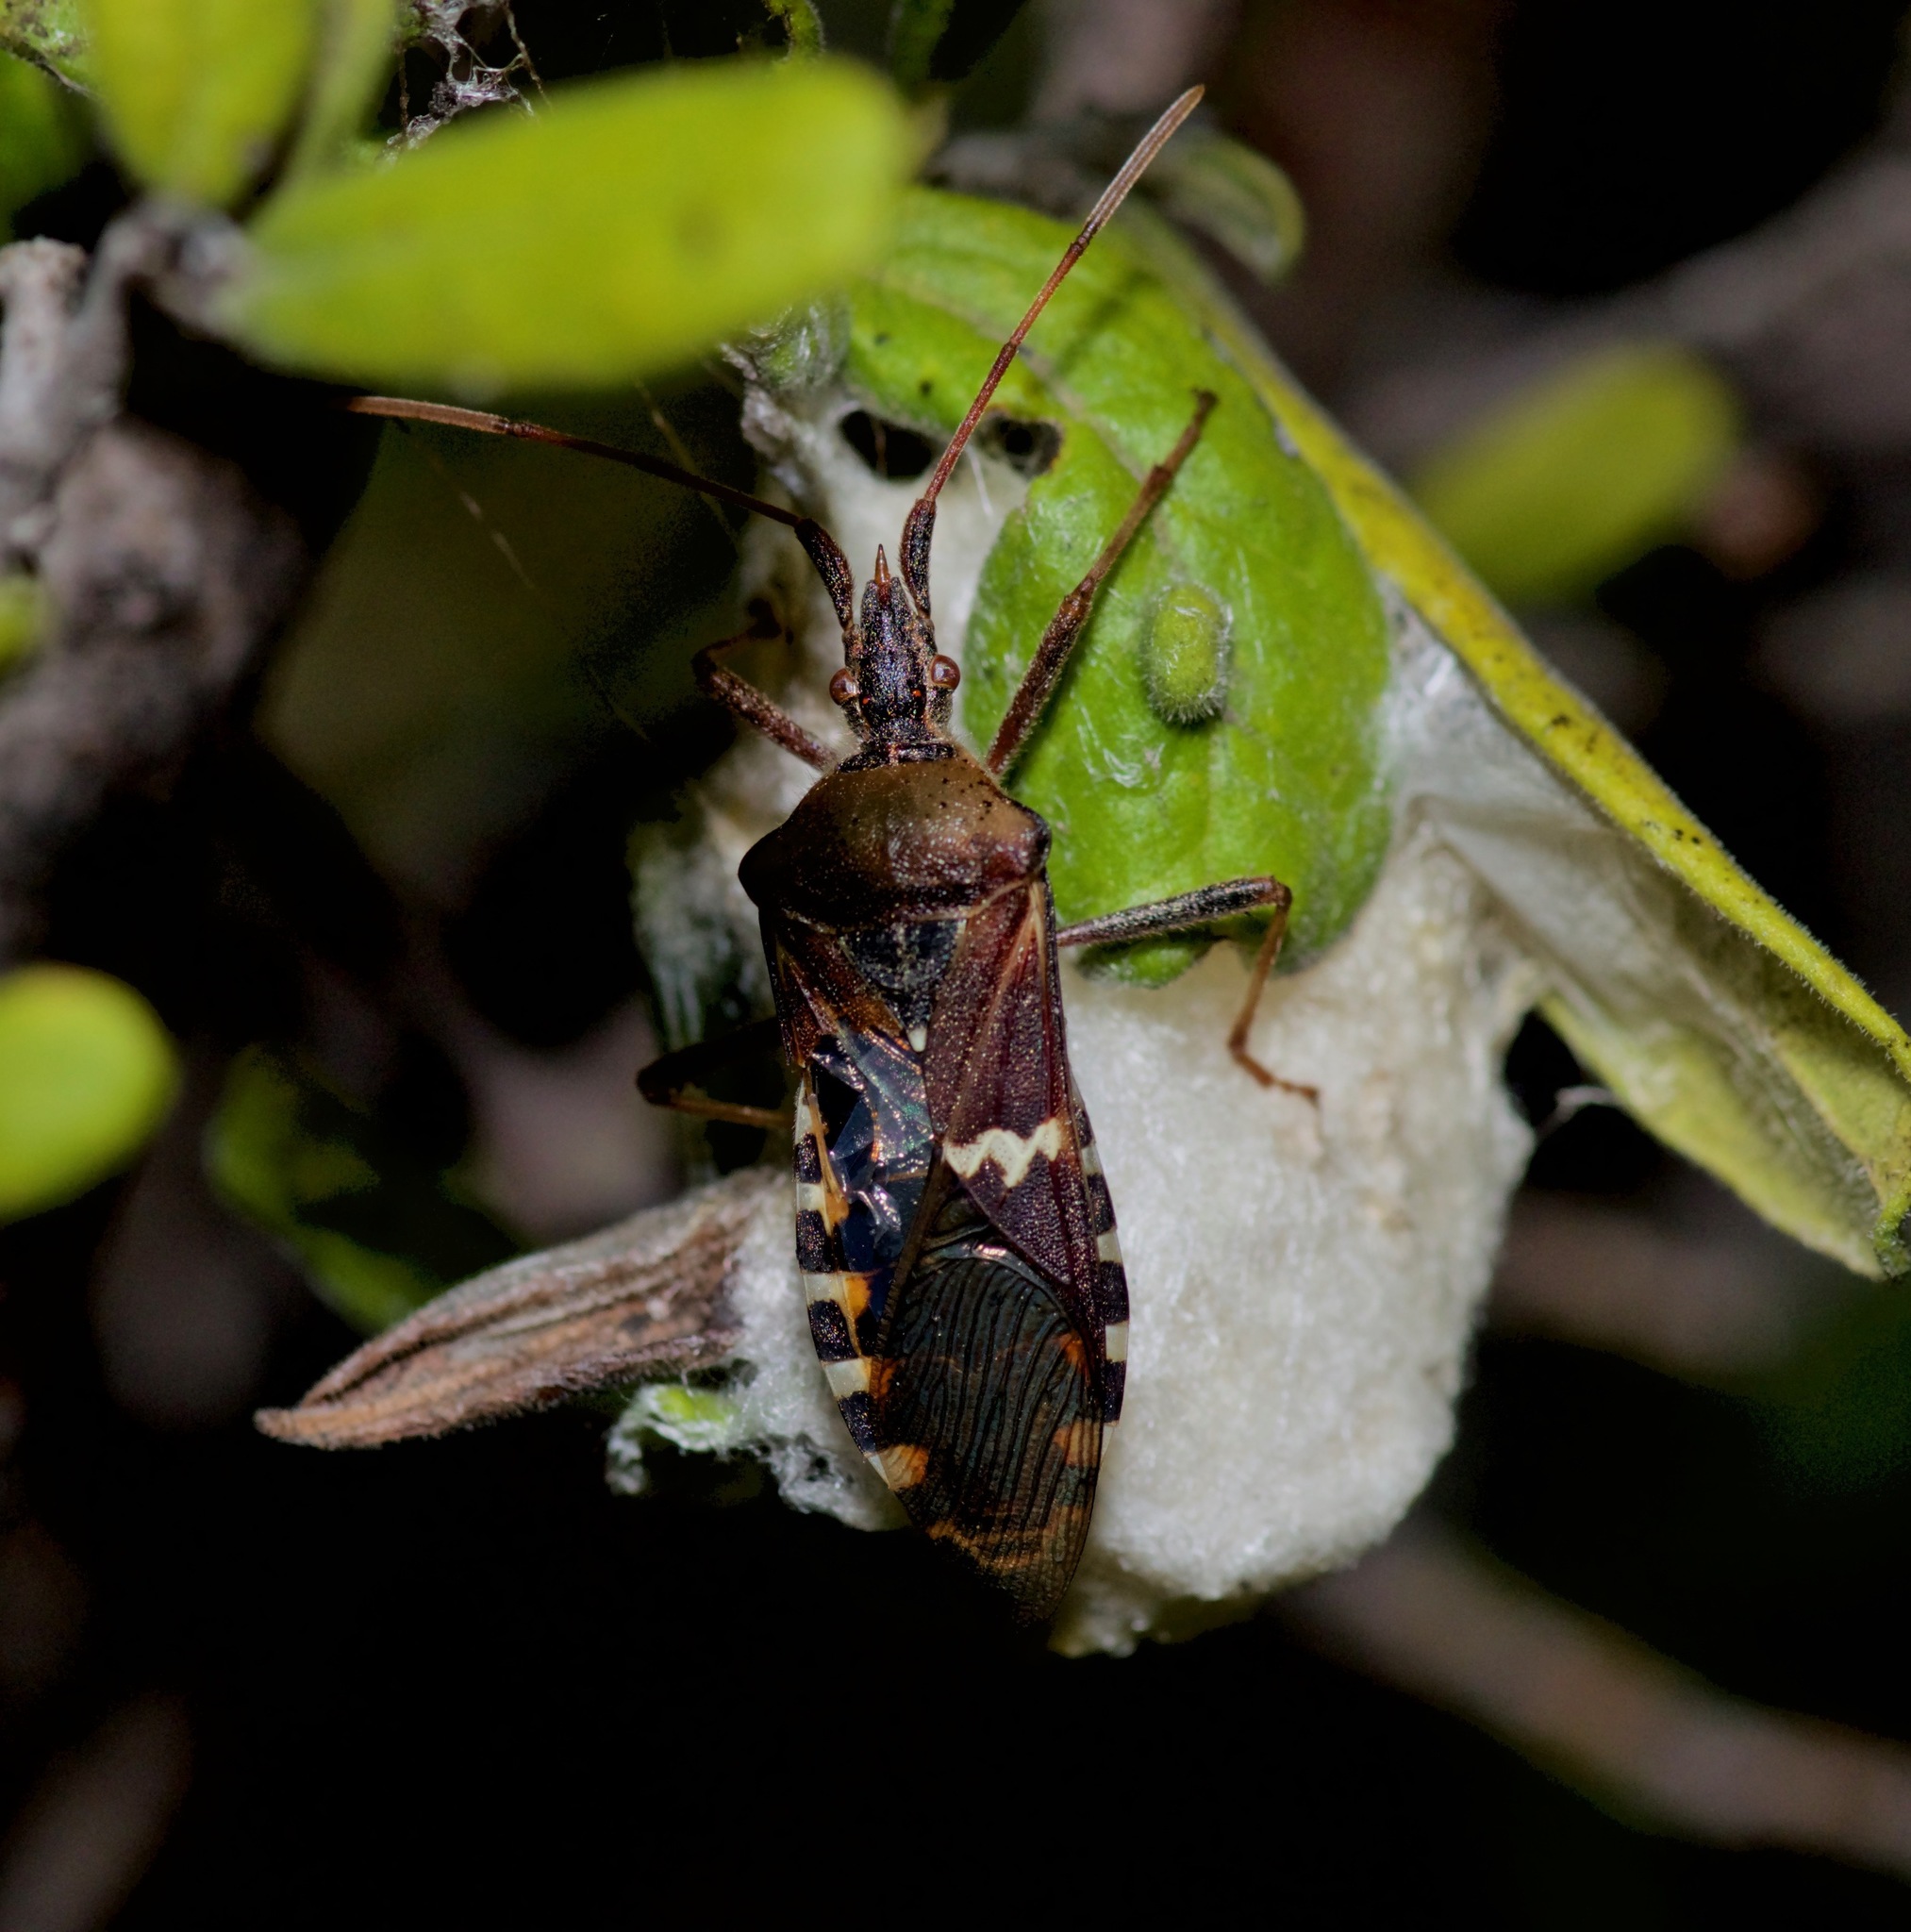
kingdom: Animalia
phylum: Arthropoda
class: Insecta
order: Hemiptera
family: Coreidae
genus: Leptoglossus
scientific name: Leptoglossus clypealis
